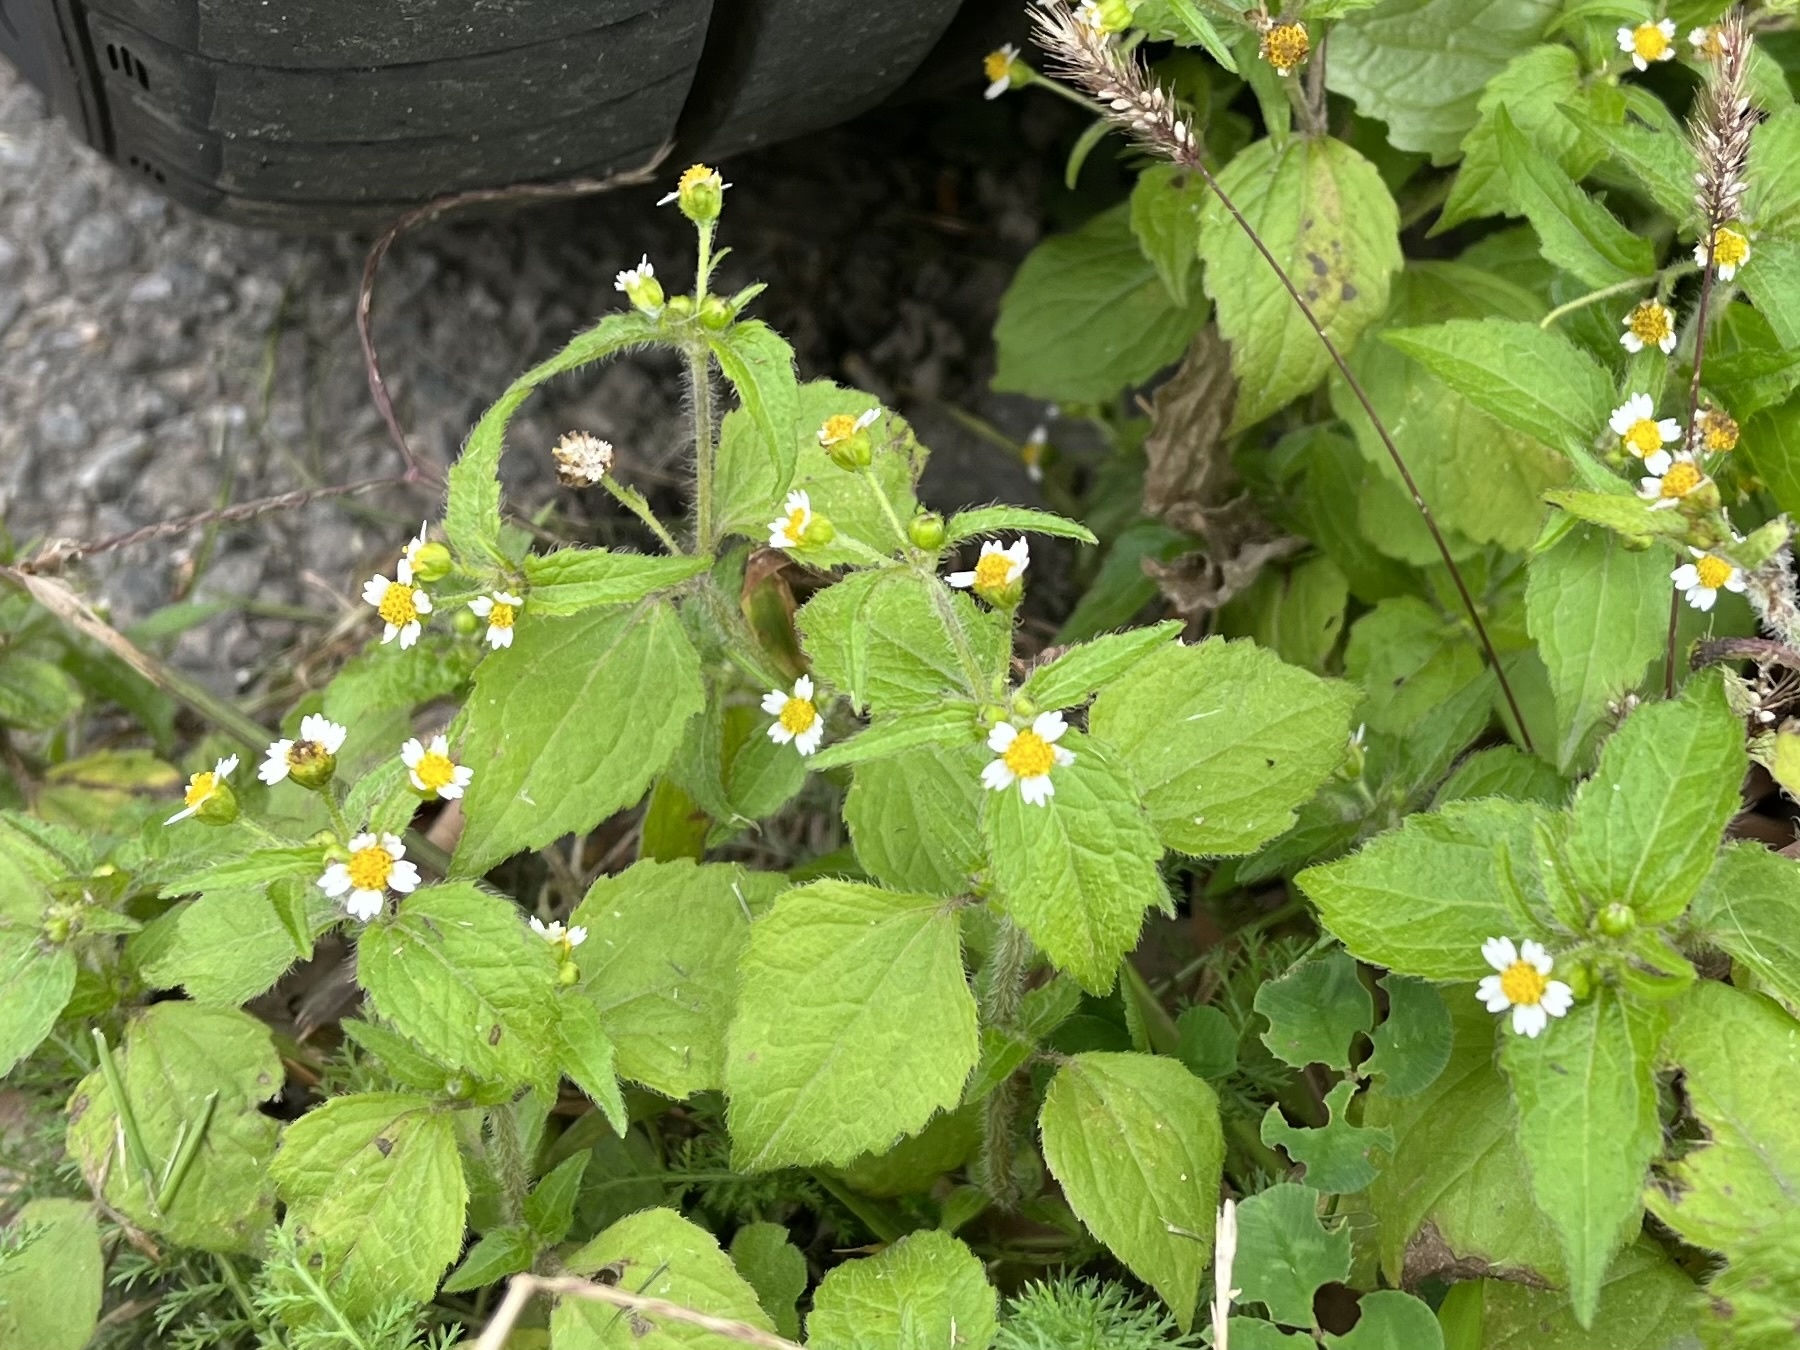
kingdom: Plantae
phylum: Tracheophyta
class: Magnoliopsida
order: Asterales
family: Asteraceae
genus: Galinsoga
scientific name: Galinsoga quadriradiata
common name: Shaggy soldier
